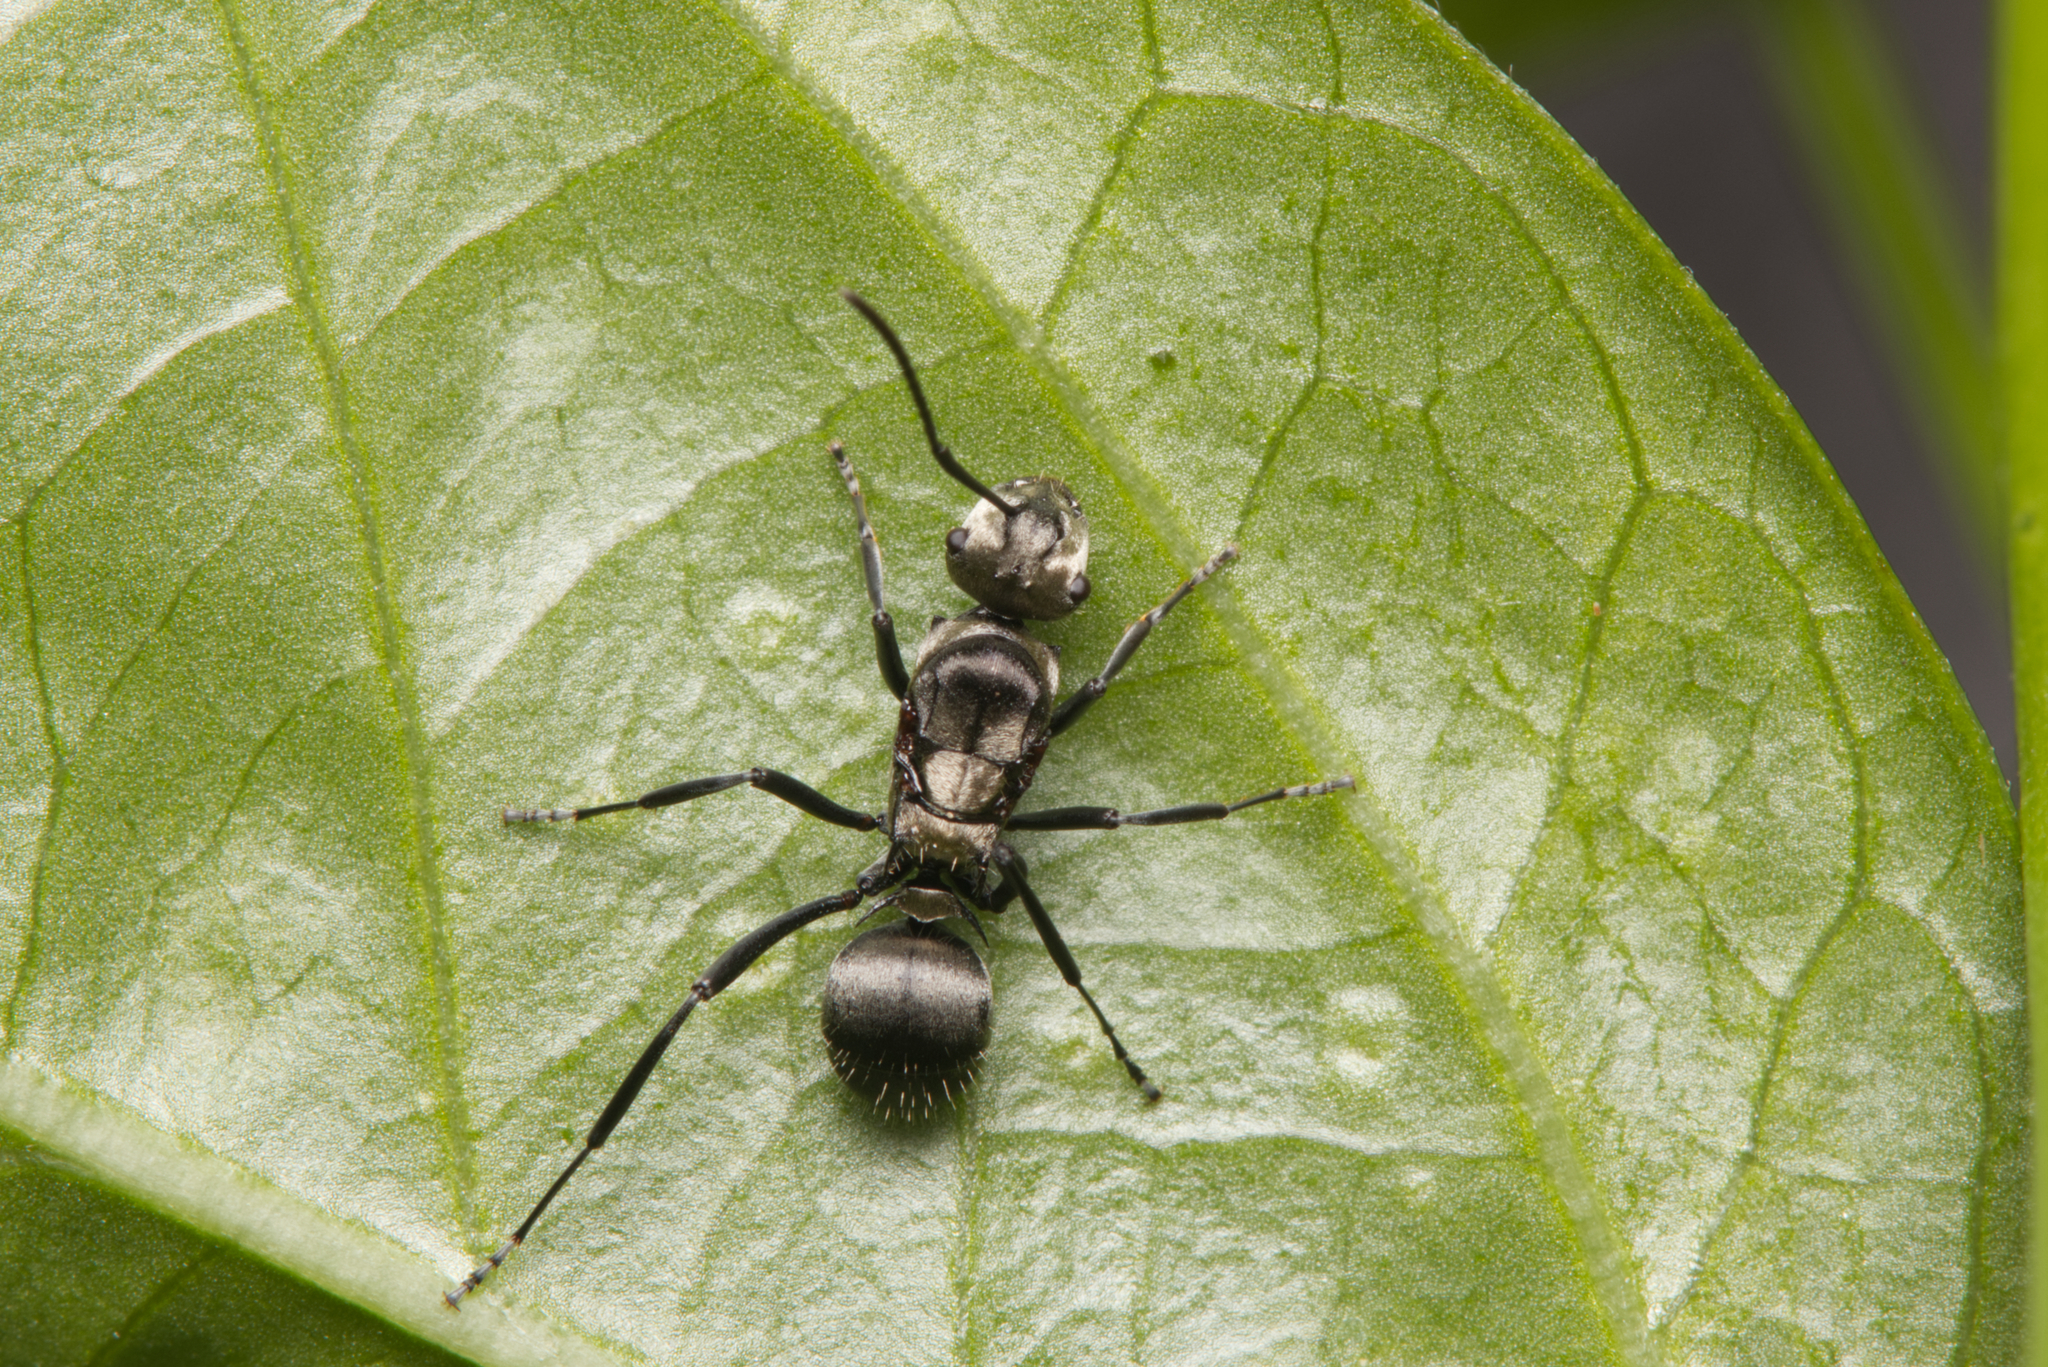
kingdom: Animalia
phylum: Arthropoda
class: Insecta
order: Hymenoptera
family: Formicidae
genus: Polyrhachis
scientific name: Polyrhachis daemeli
